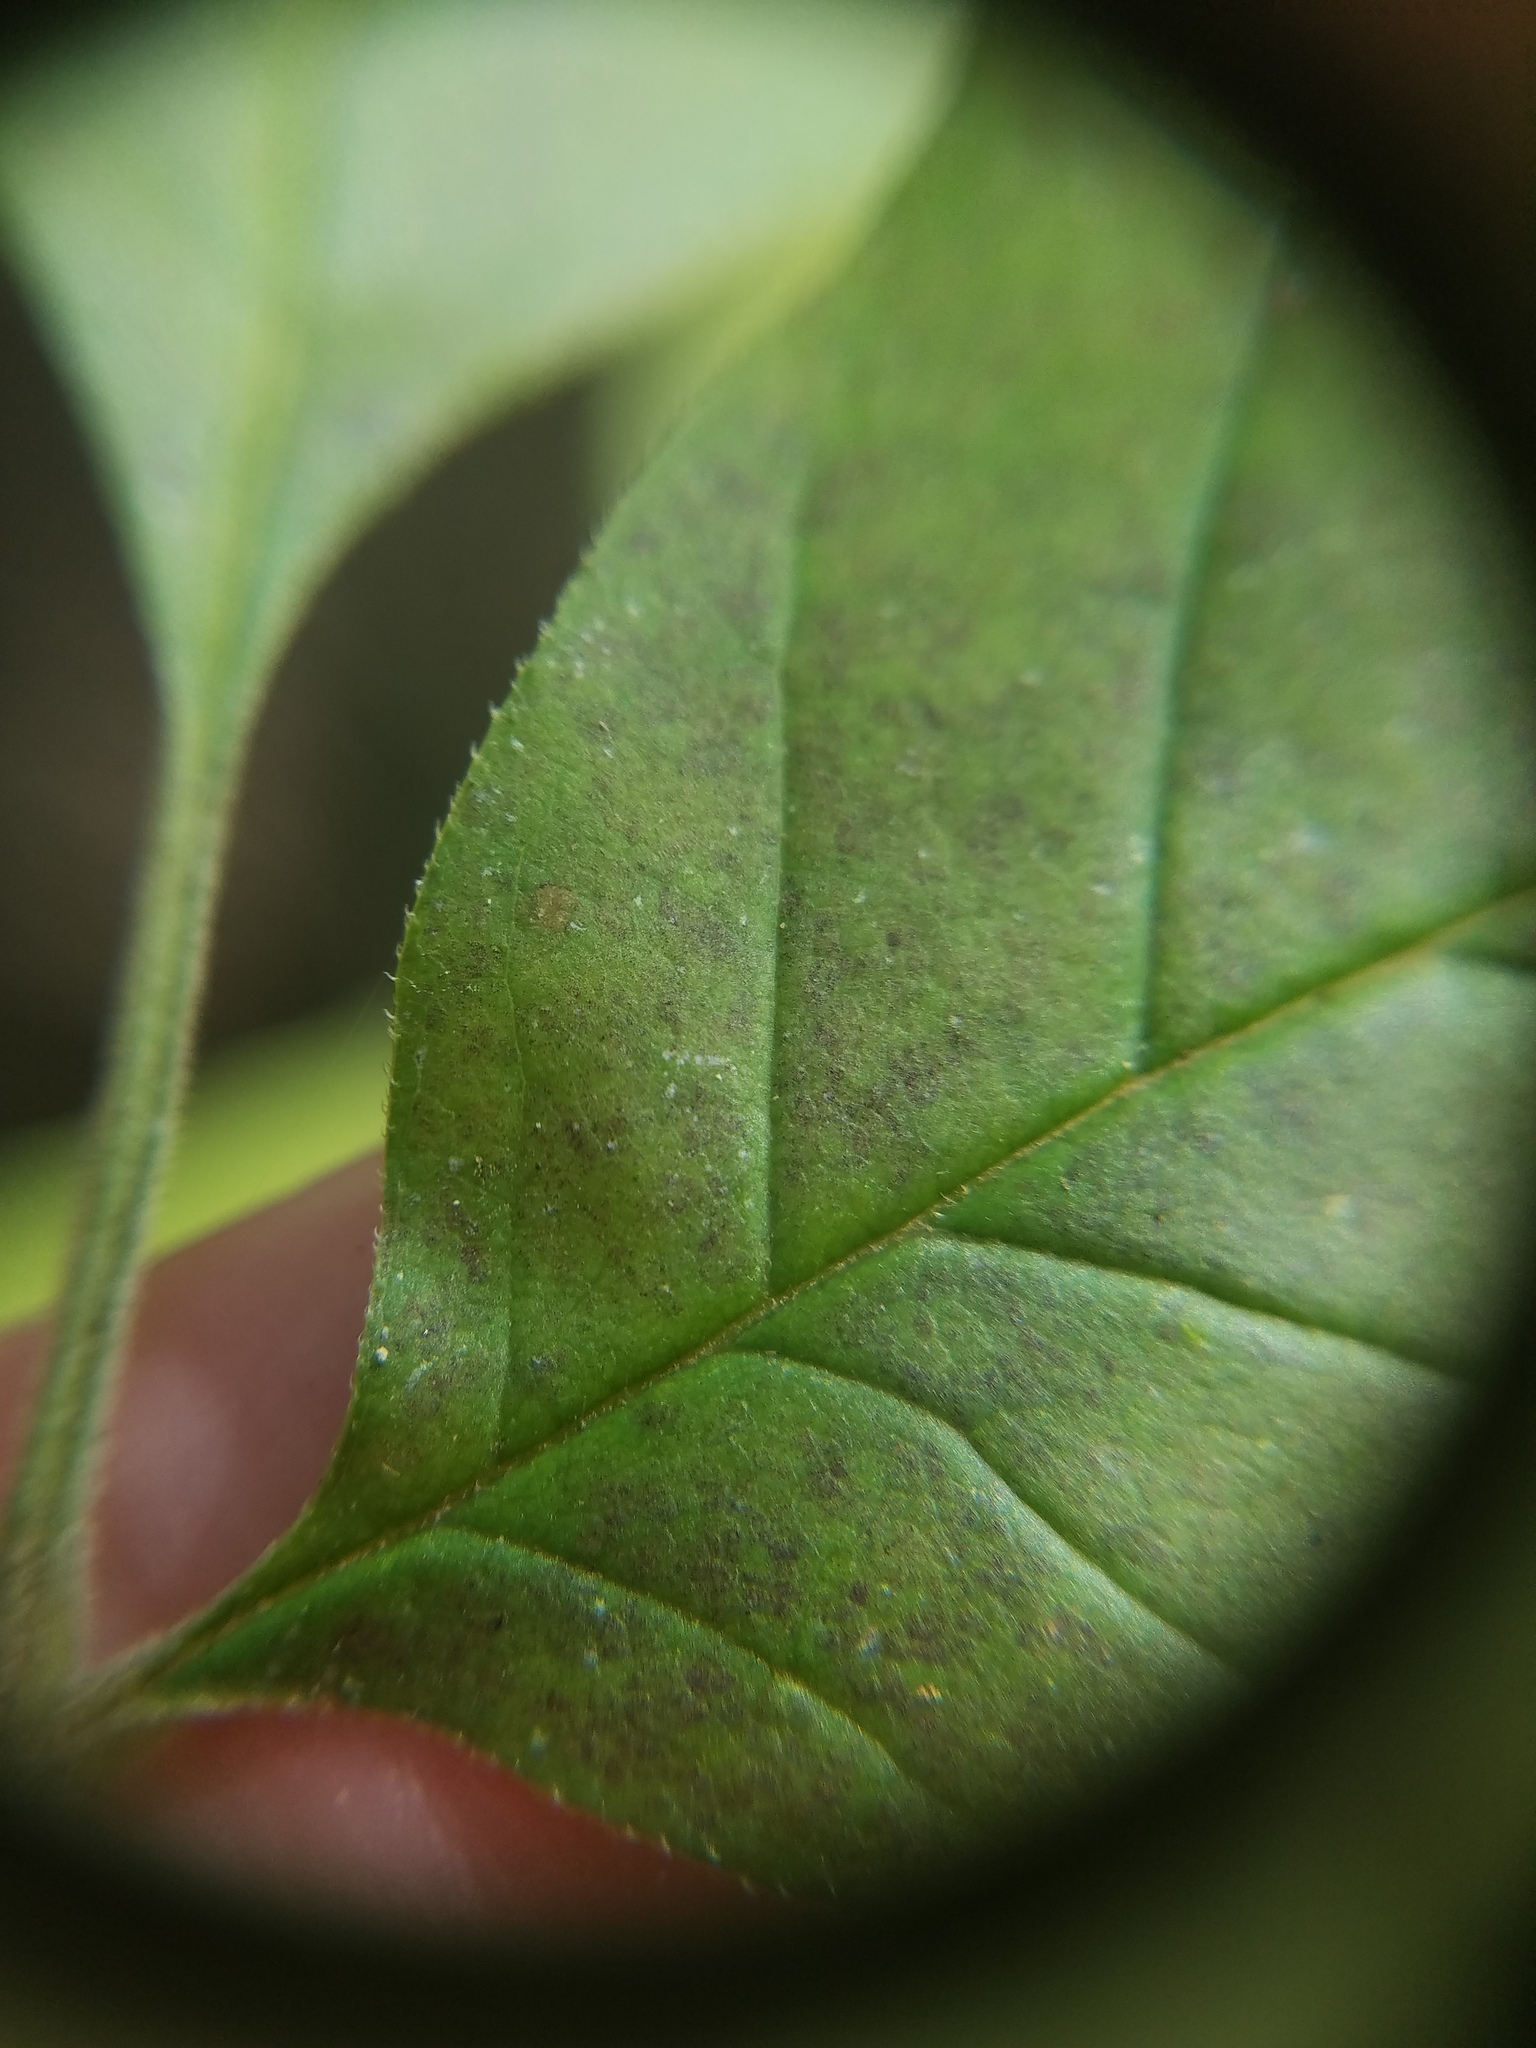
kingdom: Plantae
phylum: Tracheophyta
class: Magnoliopsida
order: Lamiales
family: Oleaceae
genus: Fraxinus
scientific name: Fraxinus americana
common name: White ash
